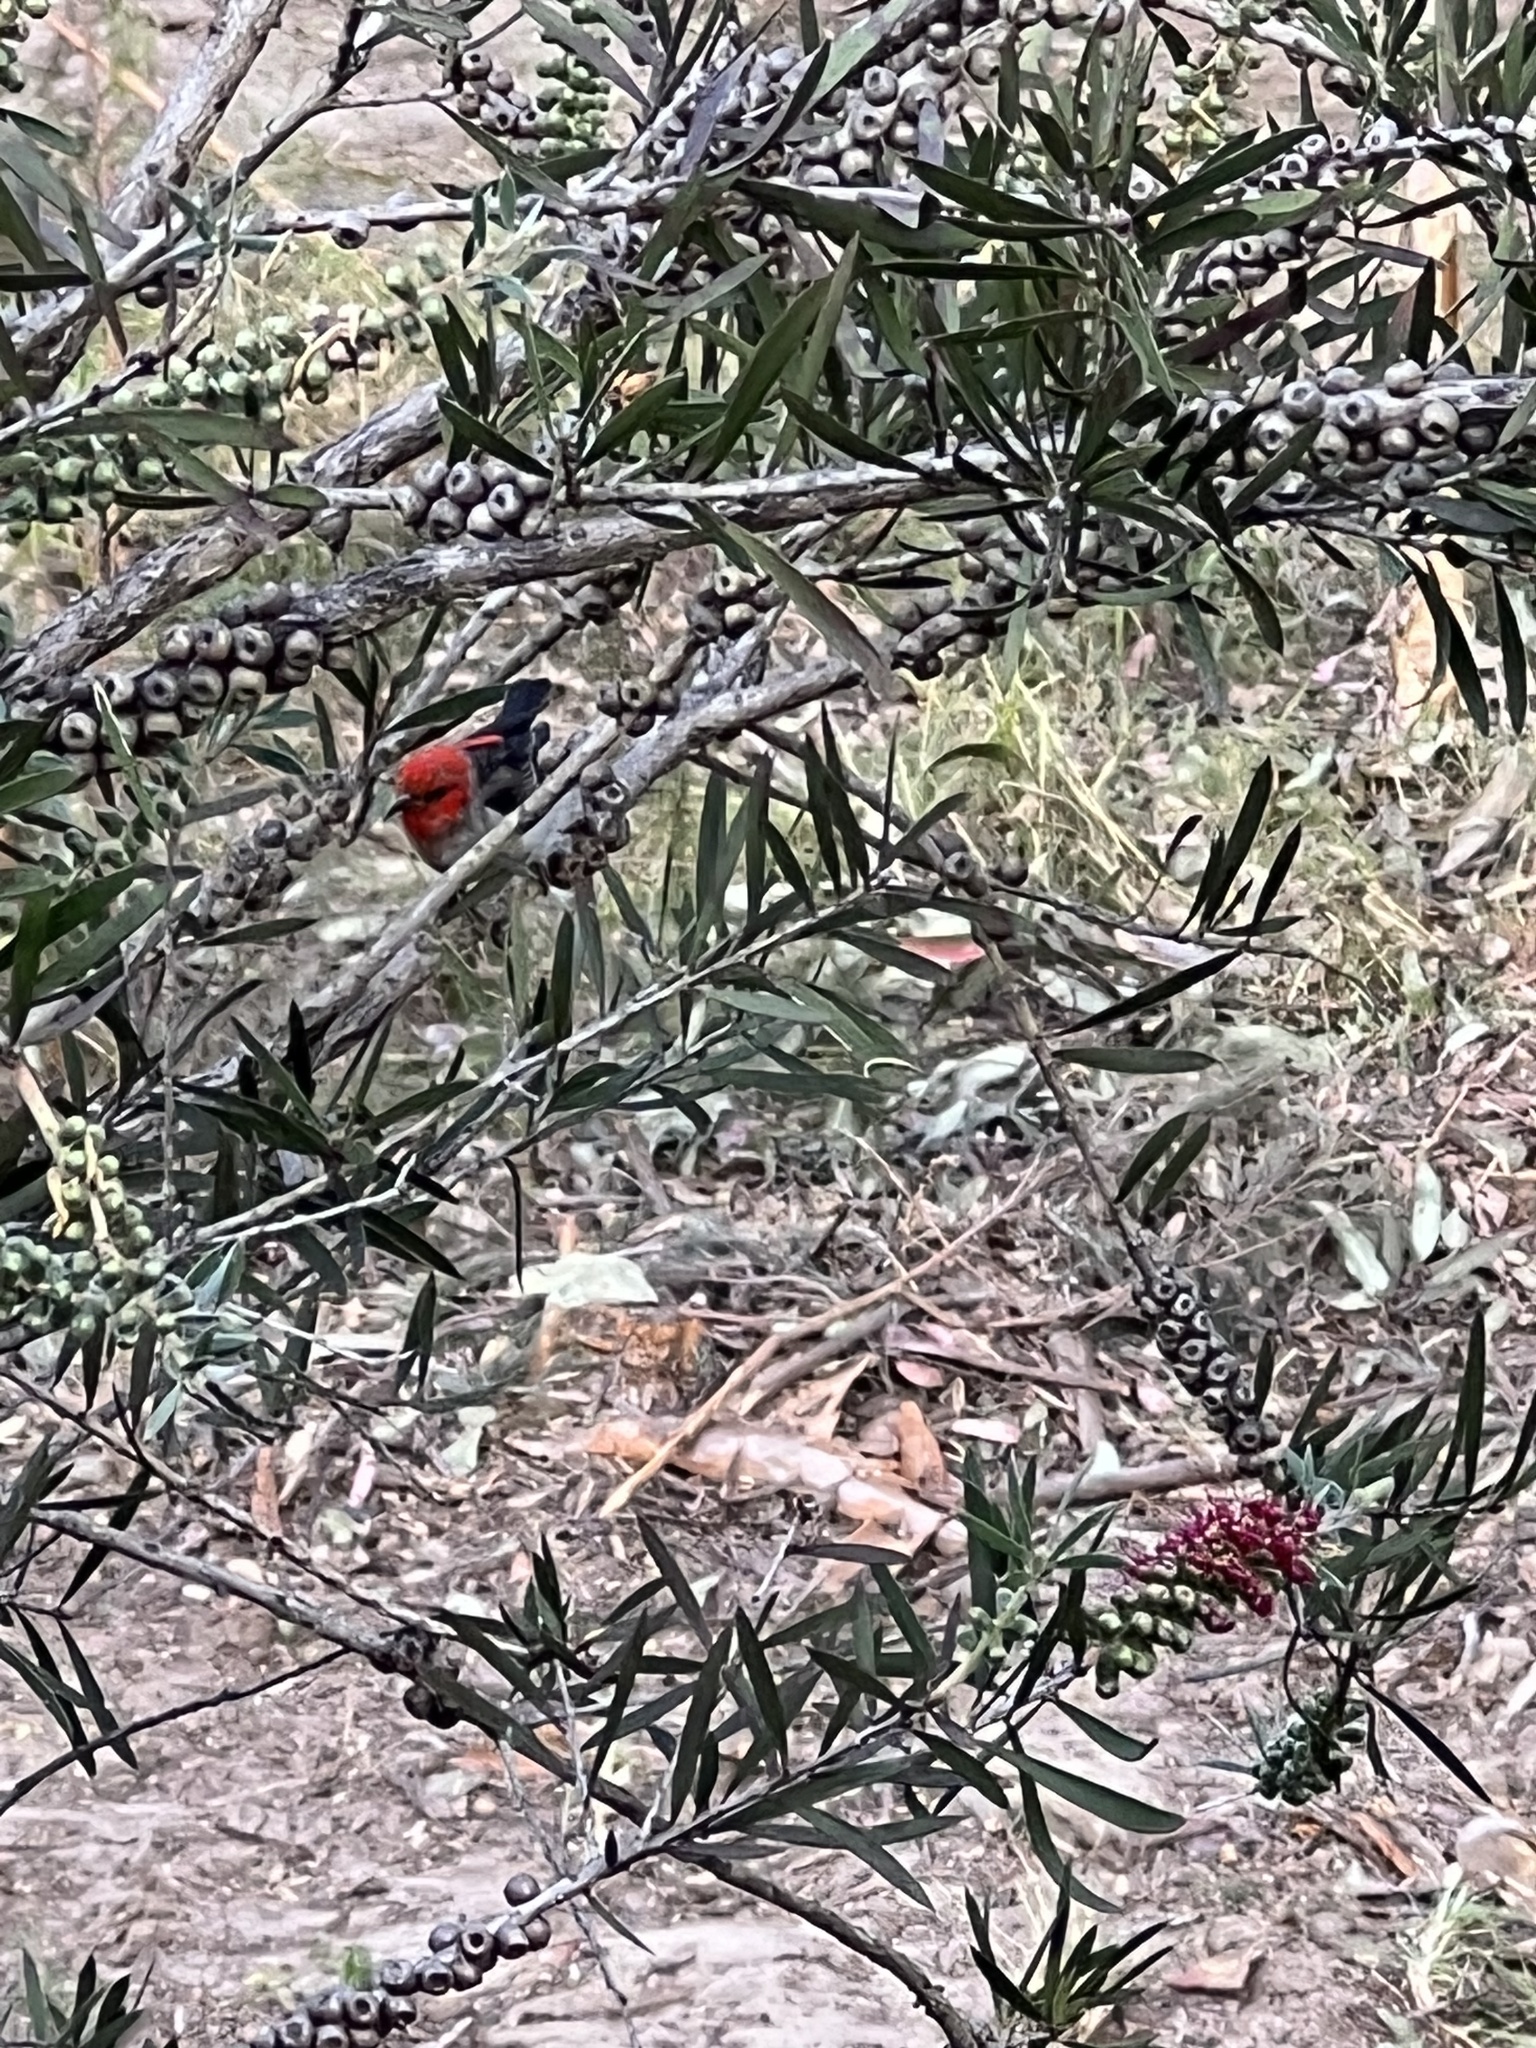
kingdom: Animalia
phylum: Chordata
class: Aves
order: Passeriformes
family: Meliphagidae
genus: Myzomela
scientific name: Myzomela sanguinolenta
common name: Scarlet myzomela
